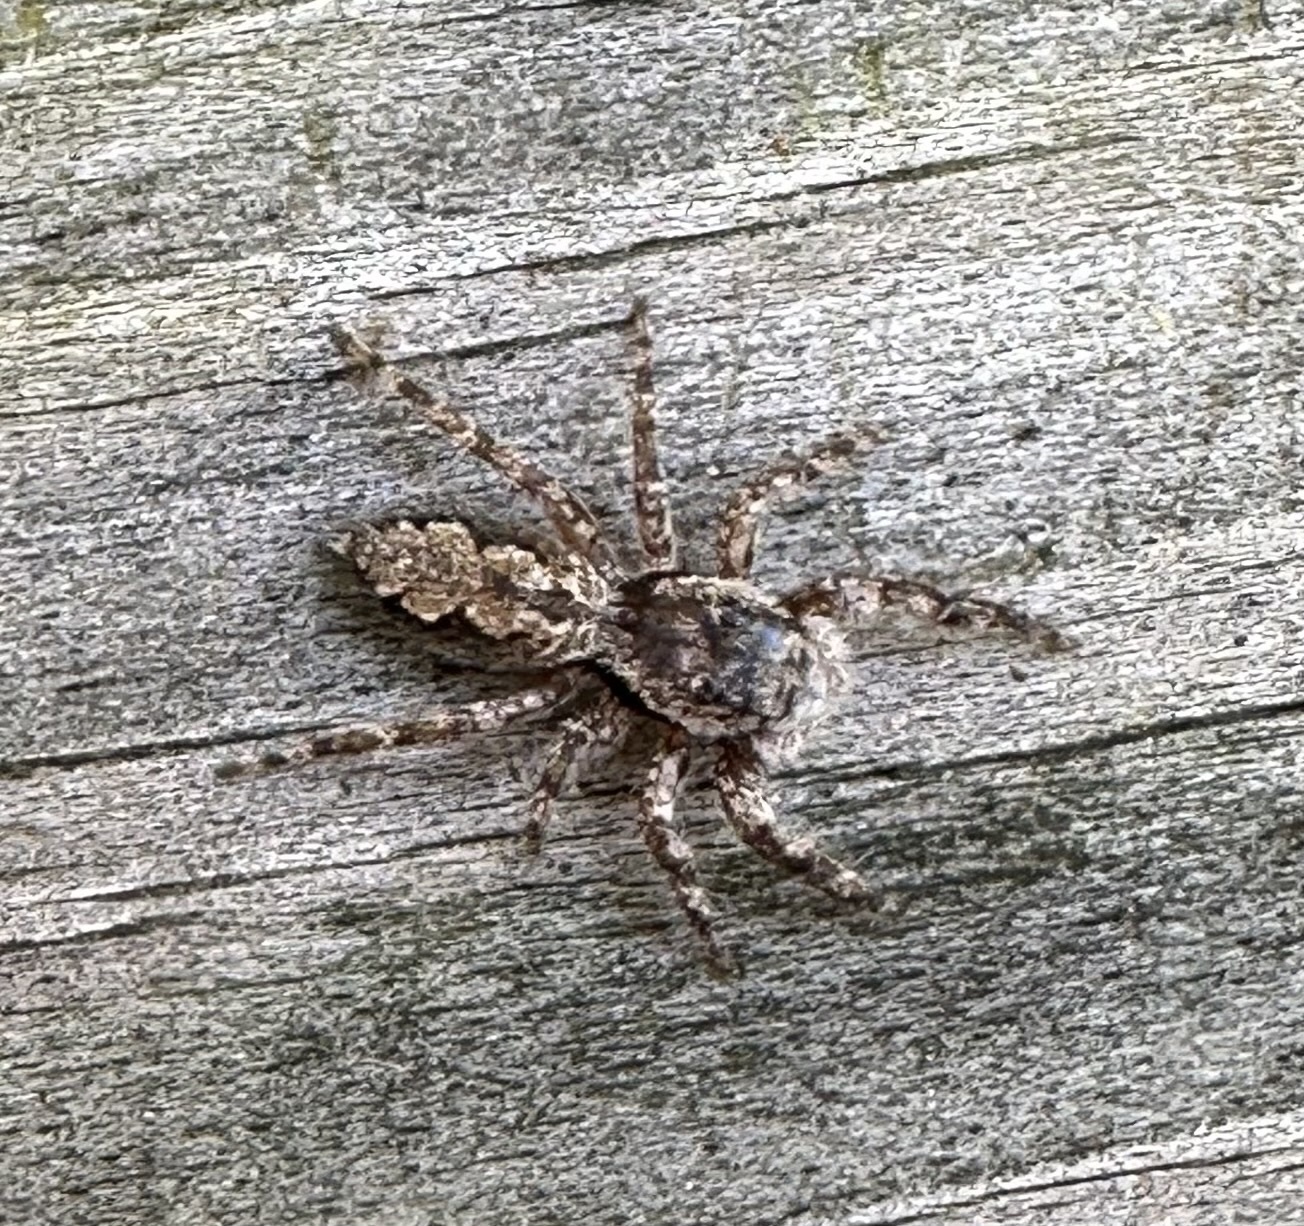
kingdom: Animalia
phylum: Arthropoda
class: Arachnida
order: Araneae
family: Salticidae
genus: Platycryptus
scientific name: Platycryptus undatus
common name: Tan jumping spider
